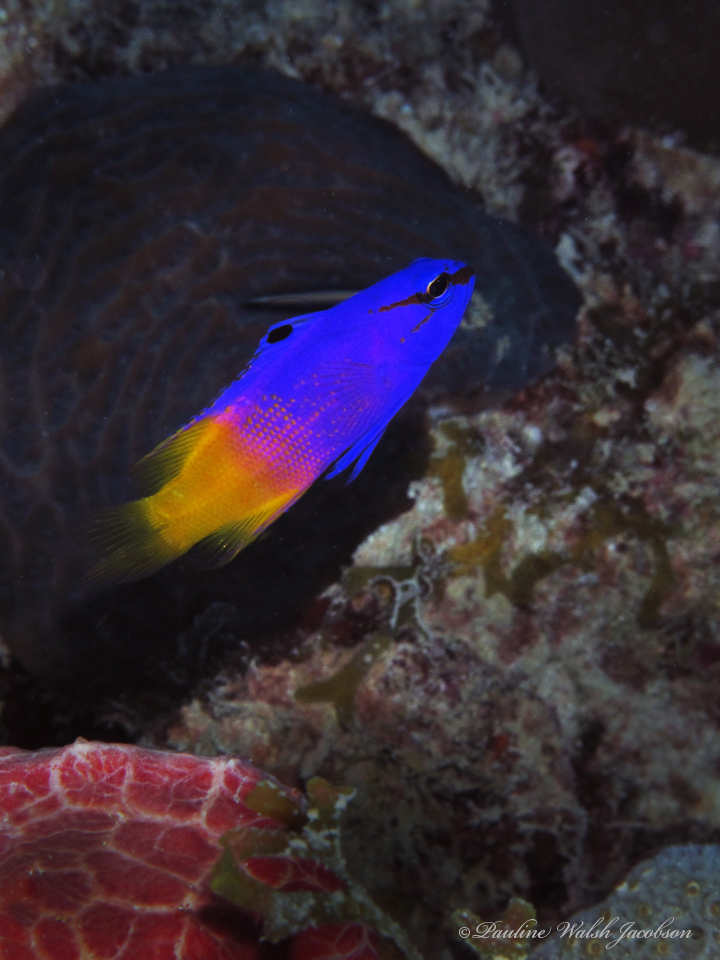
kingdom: Animalia
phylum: Chordata
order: Perciformes
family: Grammatidae
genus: Gramma
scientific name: Gramma loreto
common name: Fairy basslet
